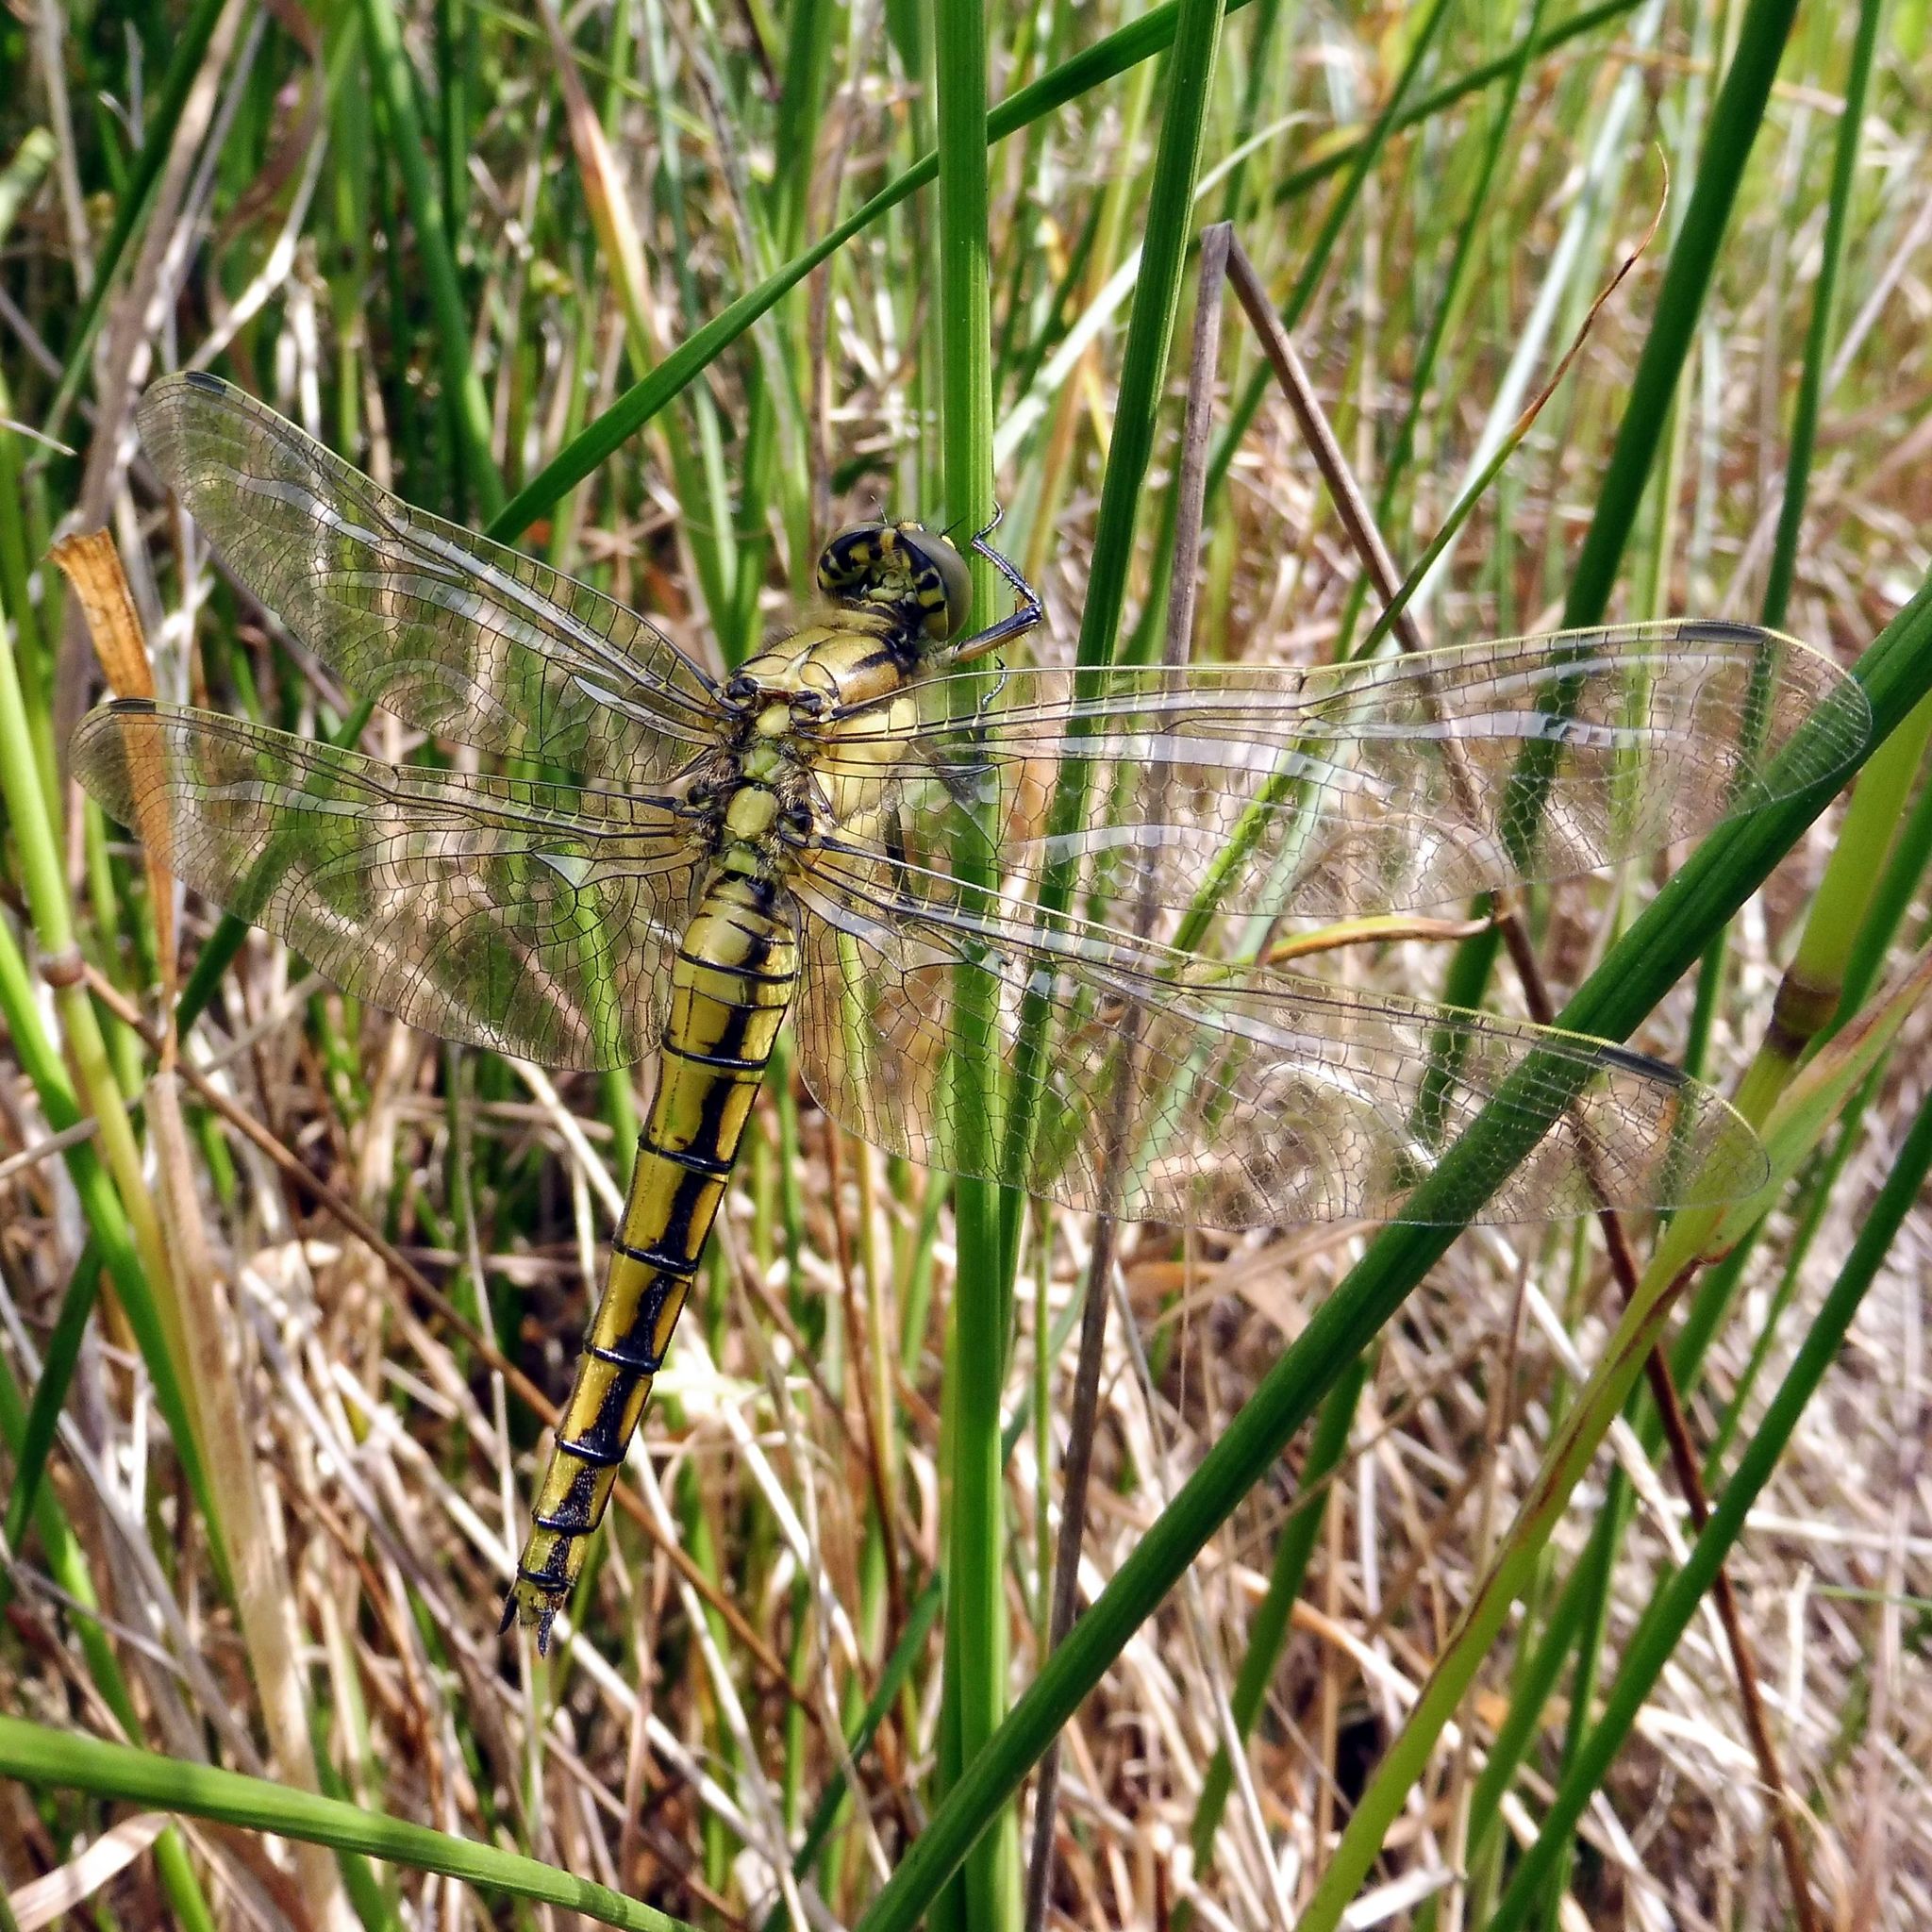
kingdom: Animalia
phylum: Arthropoda
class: Insecta
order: Odonata
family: Libellulidae
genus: Orthetrum
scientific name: Orthetrum cancellatum
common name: Black-tailed skimmer
